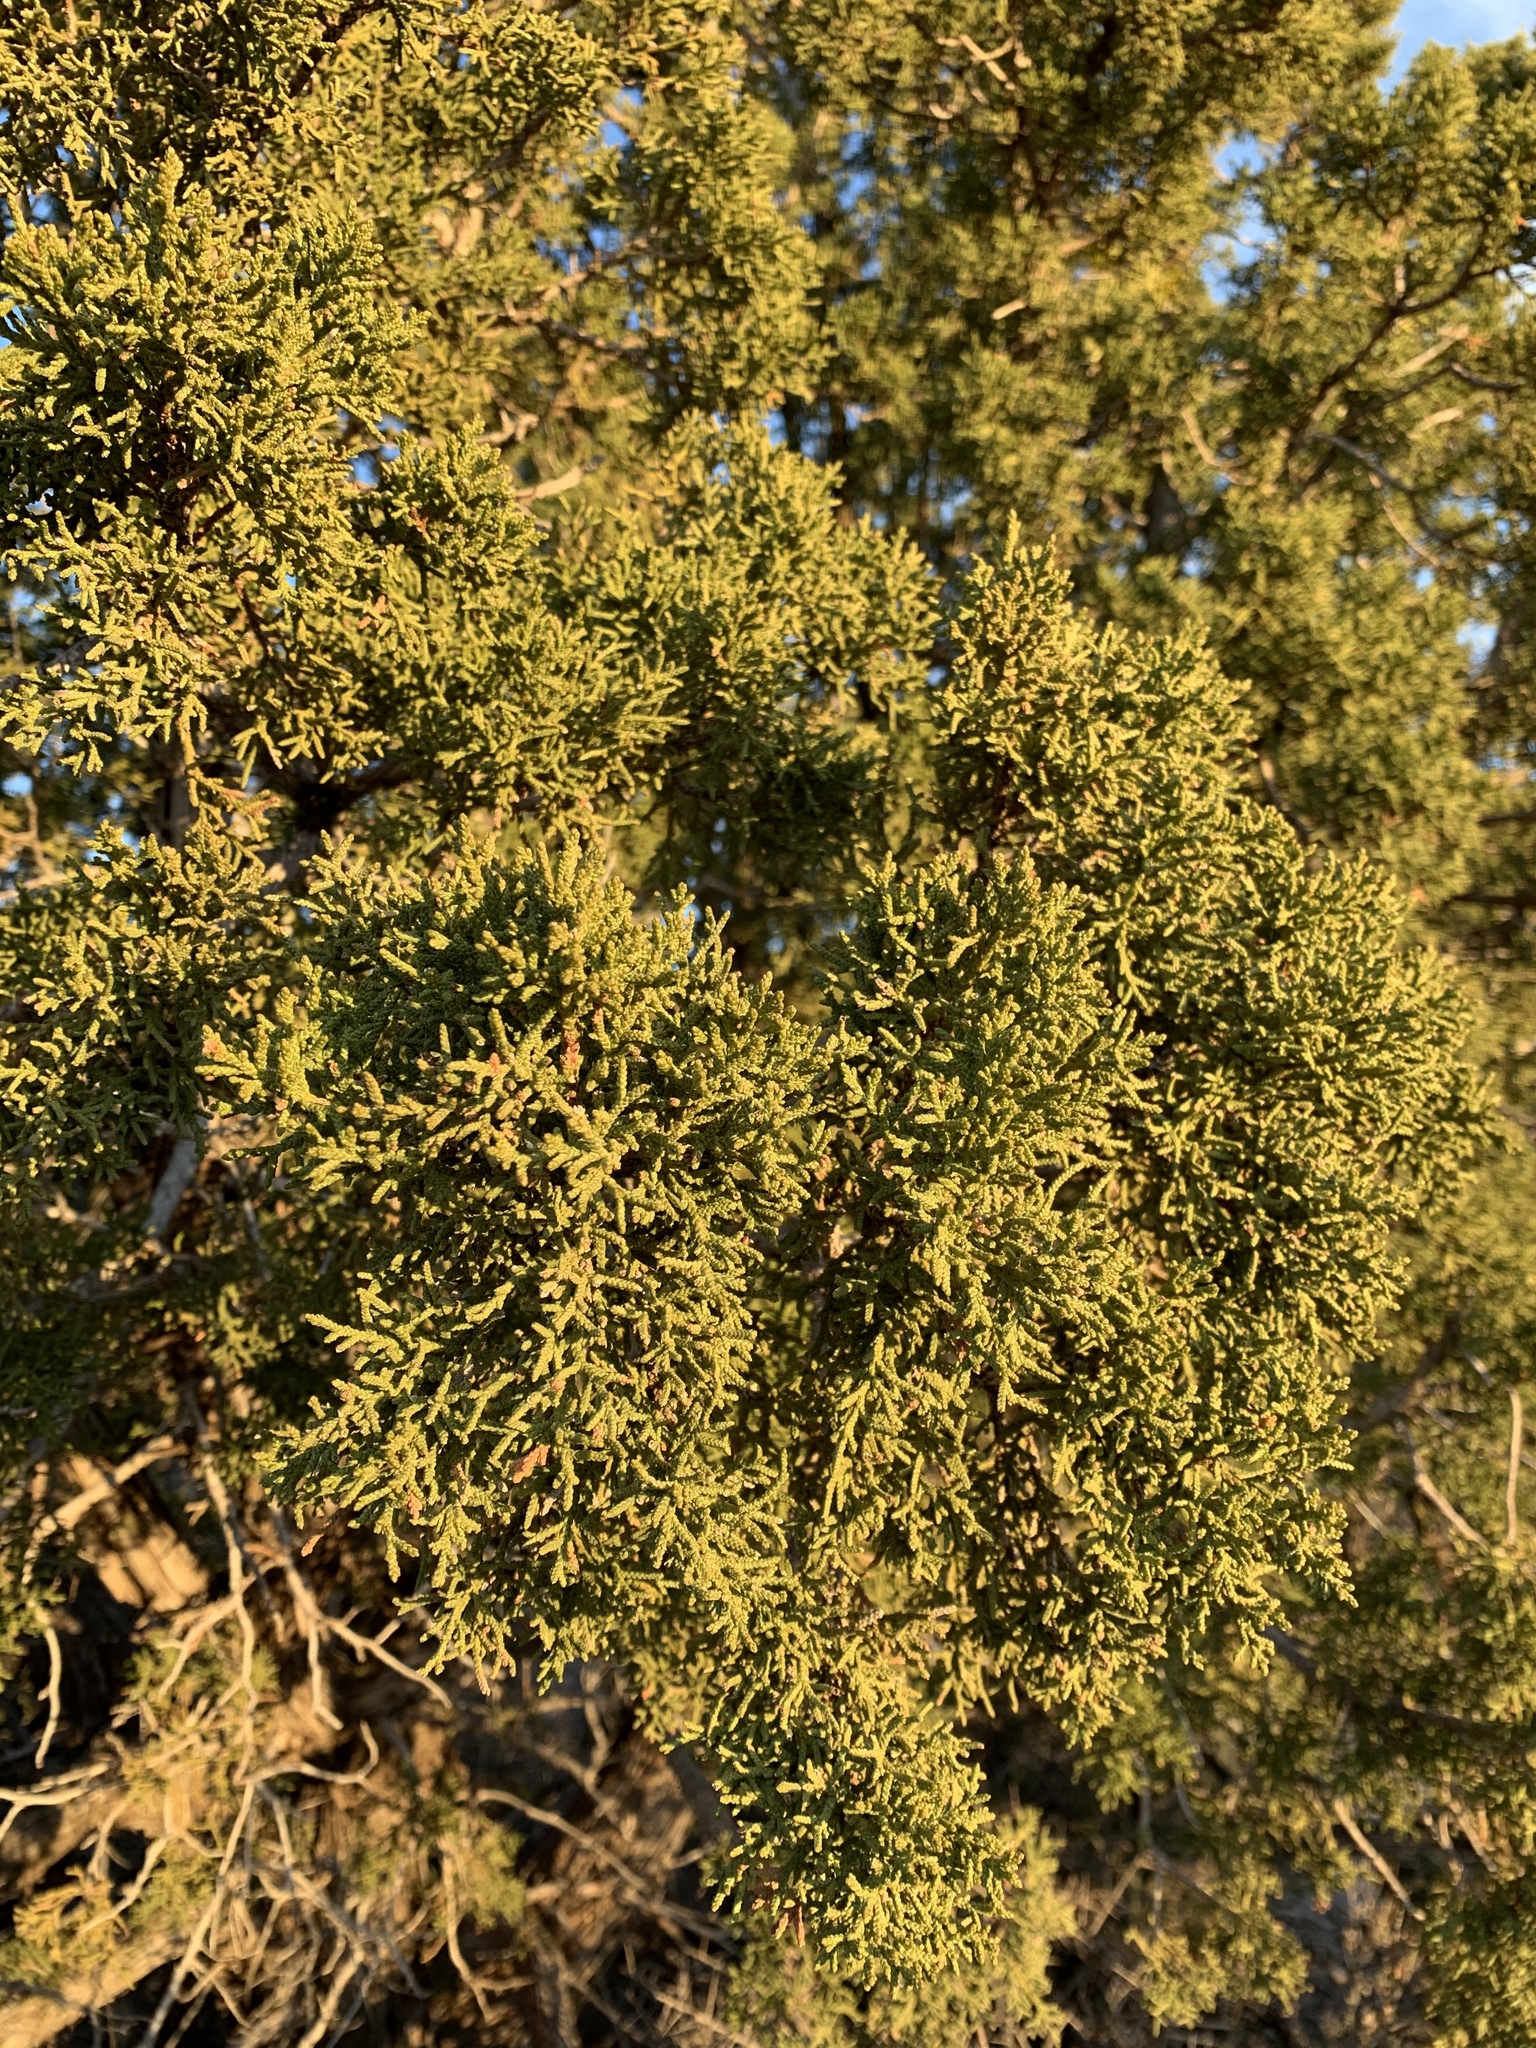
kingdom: Plantae
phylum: Tracheophyta
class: Pinopsida
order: Pinales
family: Cupressaceae
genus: Juniperus
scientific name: Juniperus monosperma
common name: One-seed juniper
